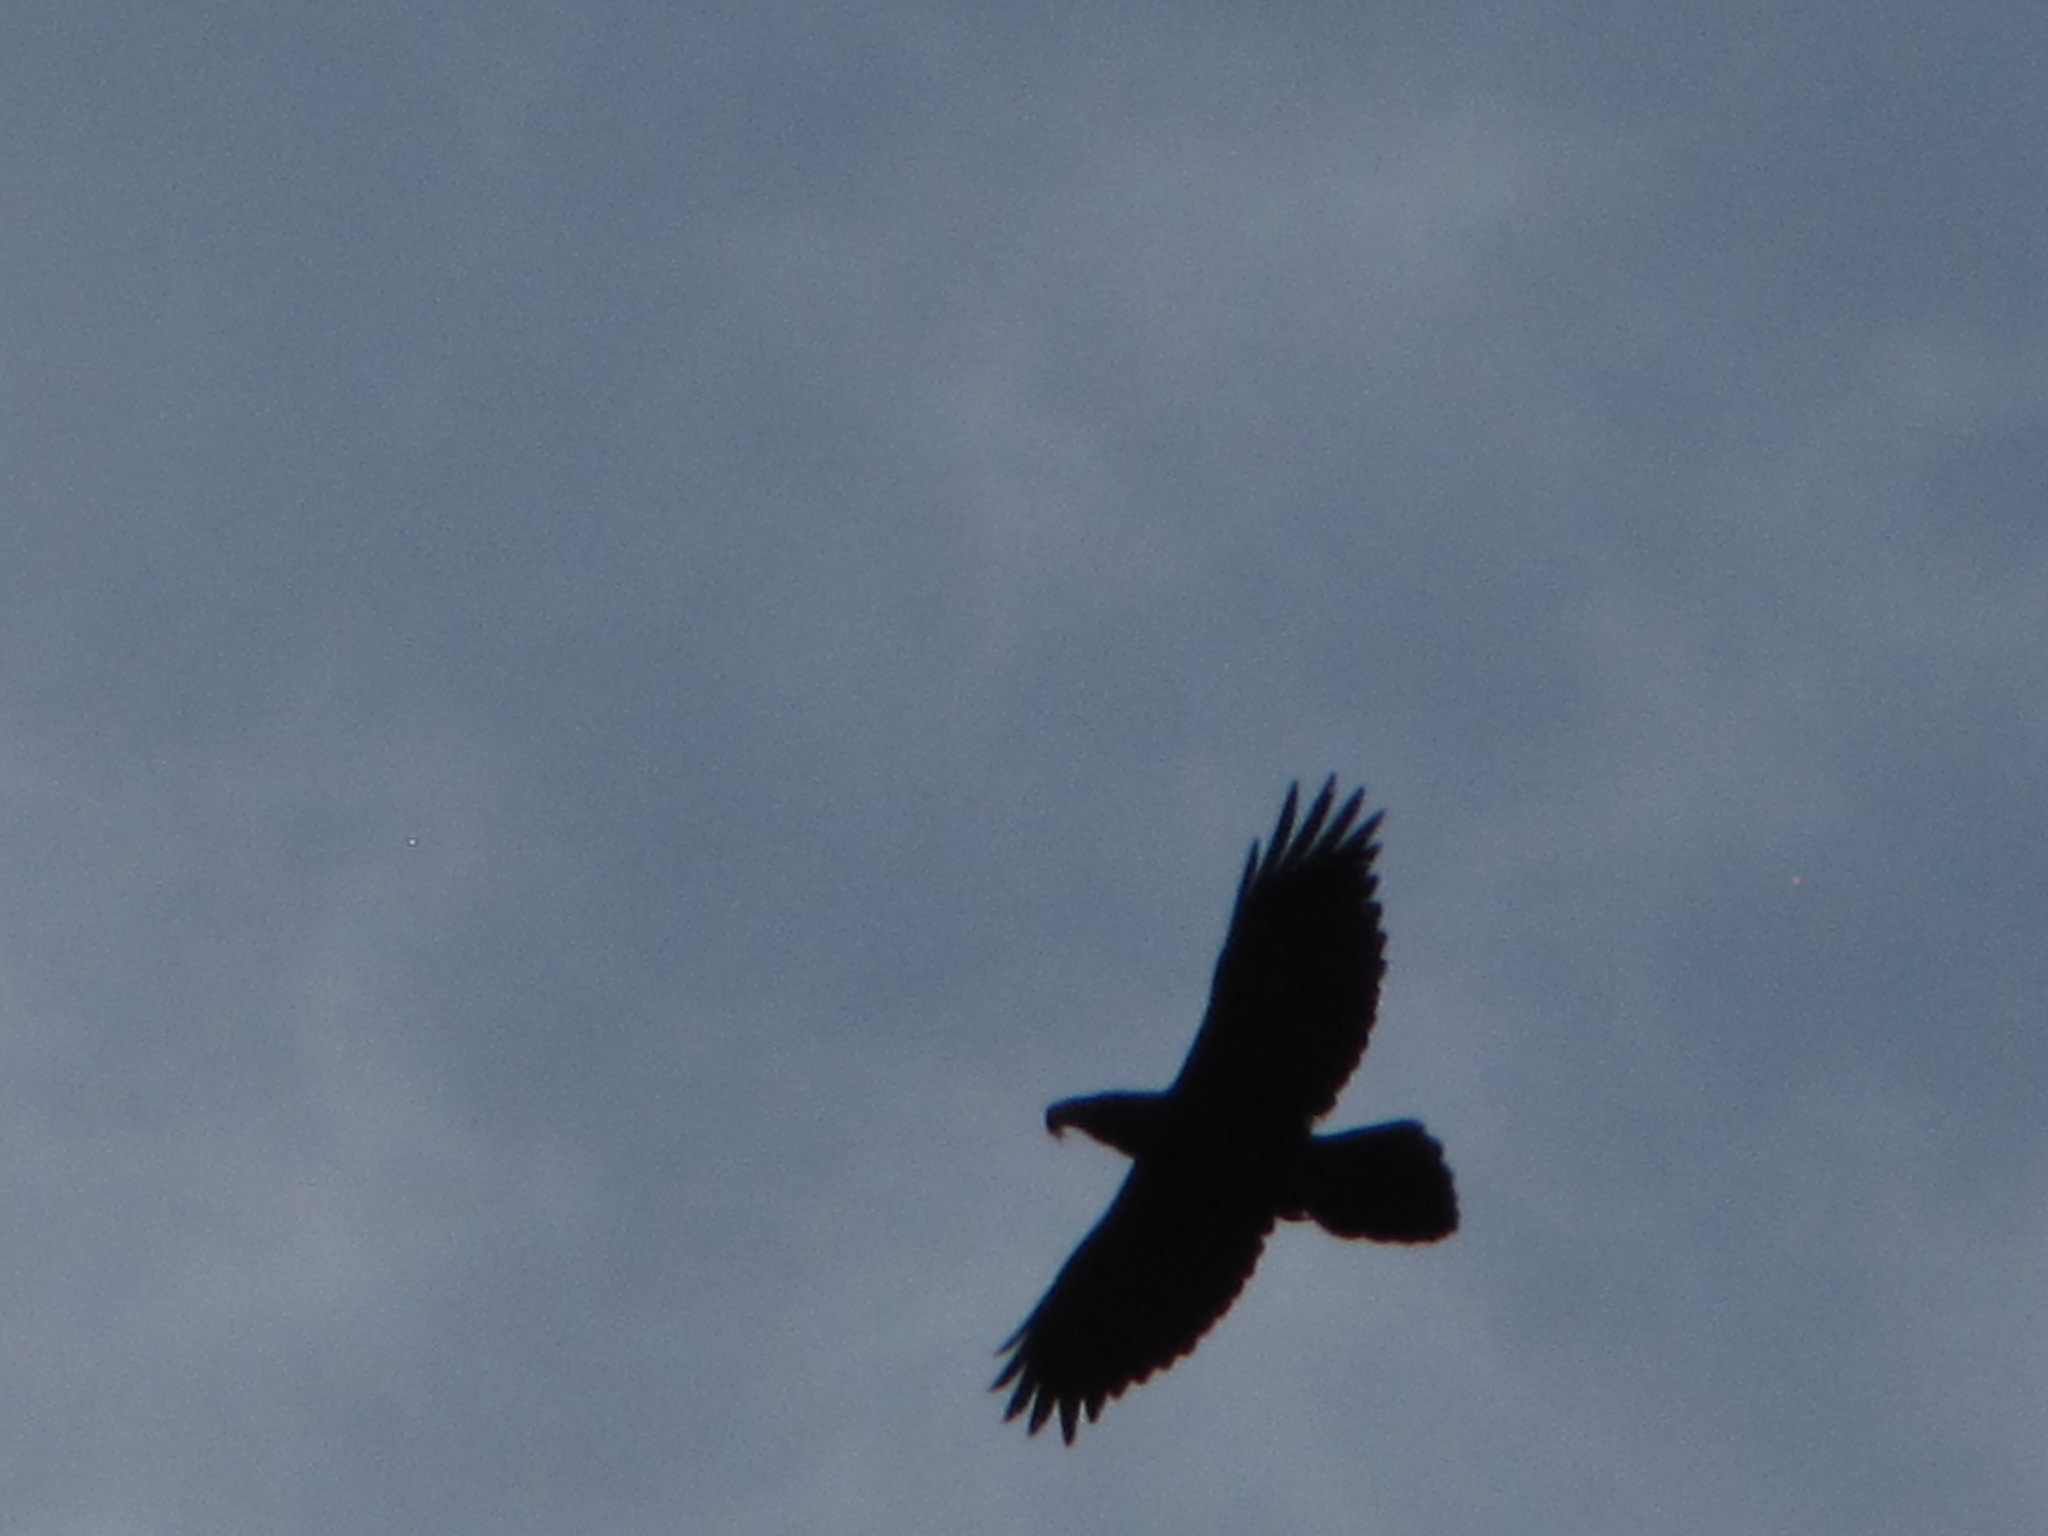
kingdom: Animalia
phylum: Chordata
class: Aves
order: Passeriformes
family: Corvidae
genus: Corvus
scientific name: Corvus corax
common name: Common raven
